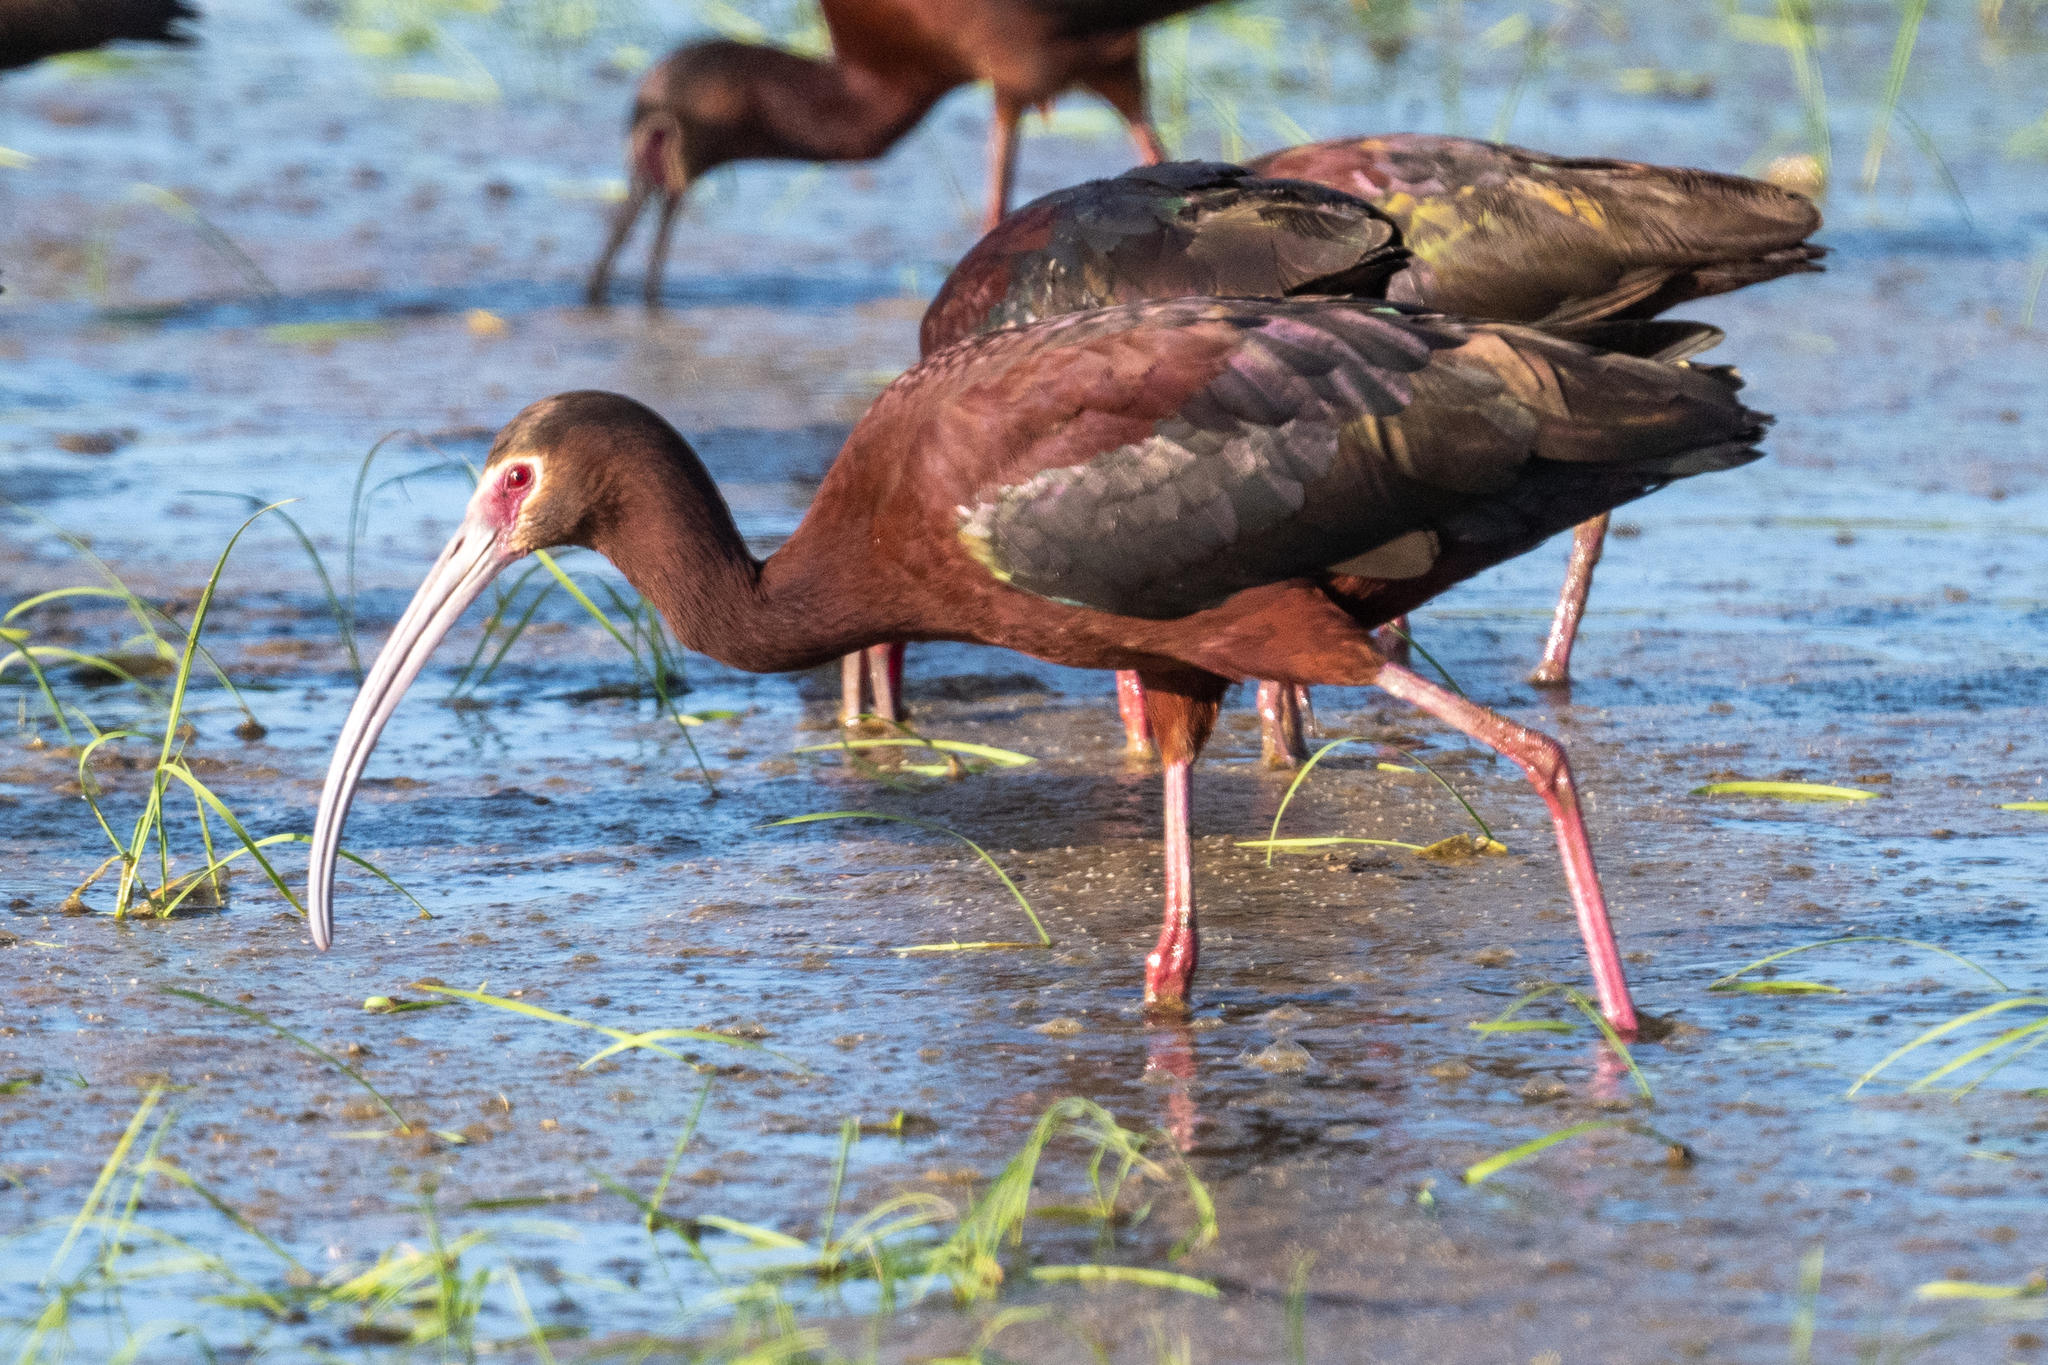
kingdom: Animalia
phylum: Chordata
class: Aves
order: Pelecaniformes
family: Threskiornithidae
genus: Plegadis
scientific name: Plegadis chihi
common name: White-faced ibis
